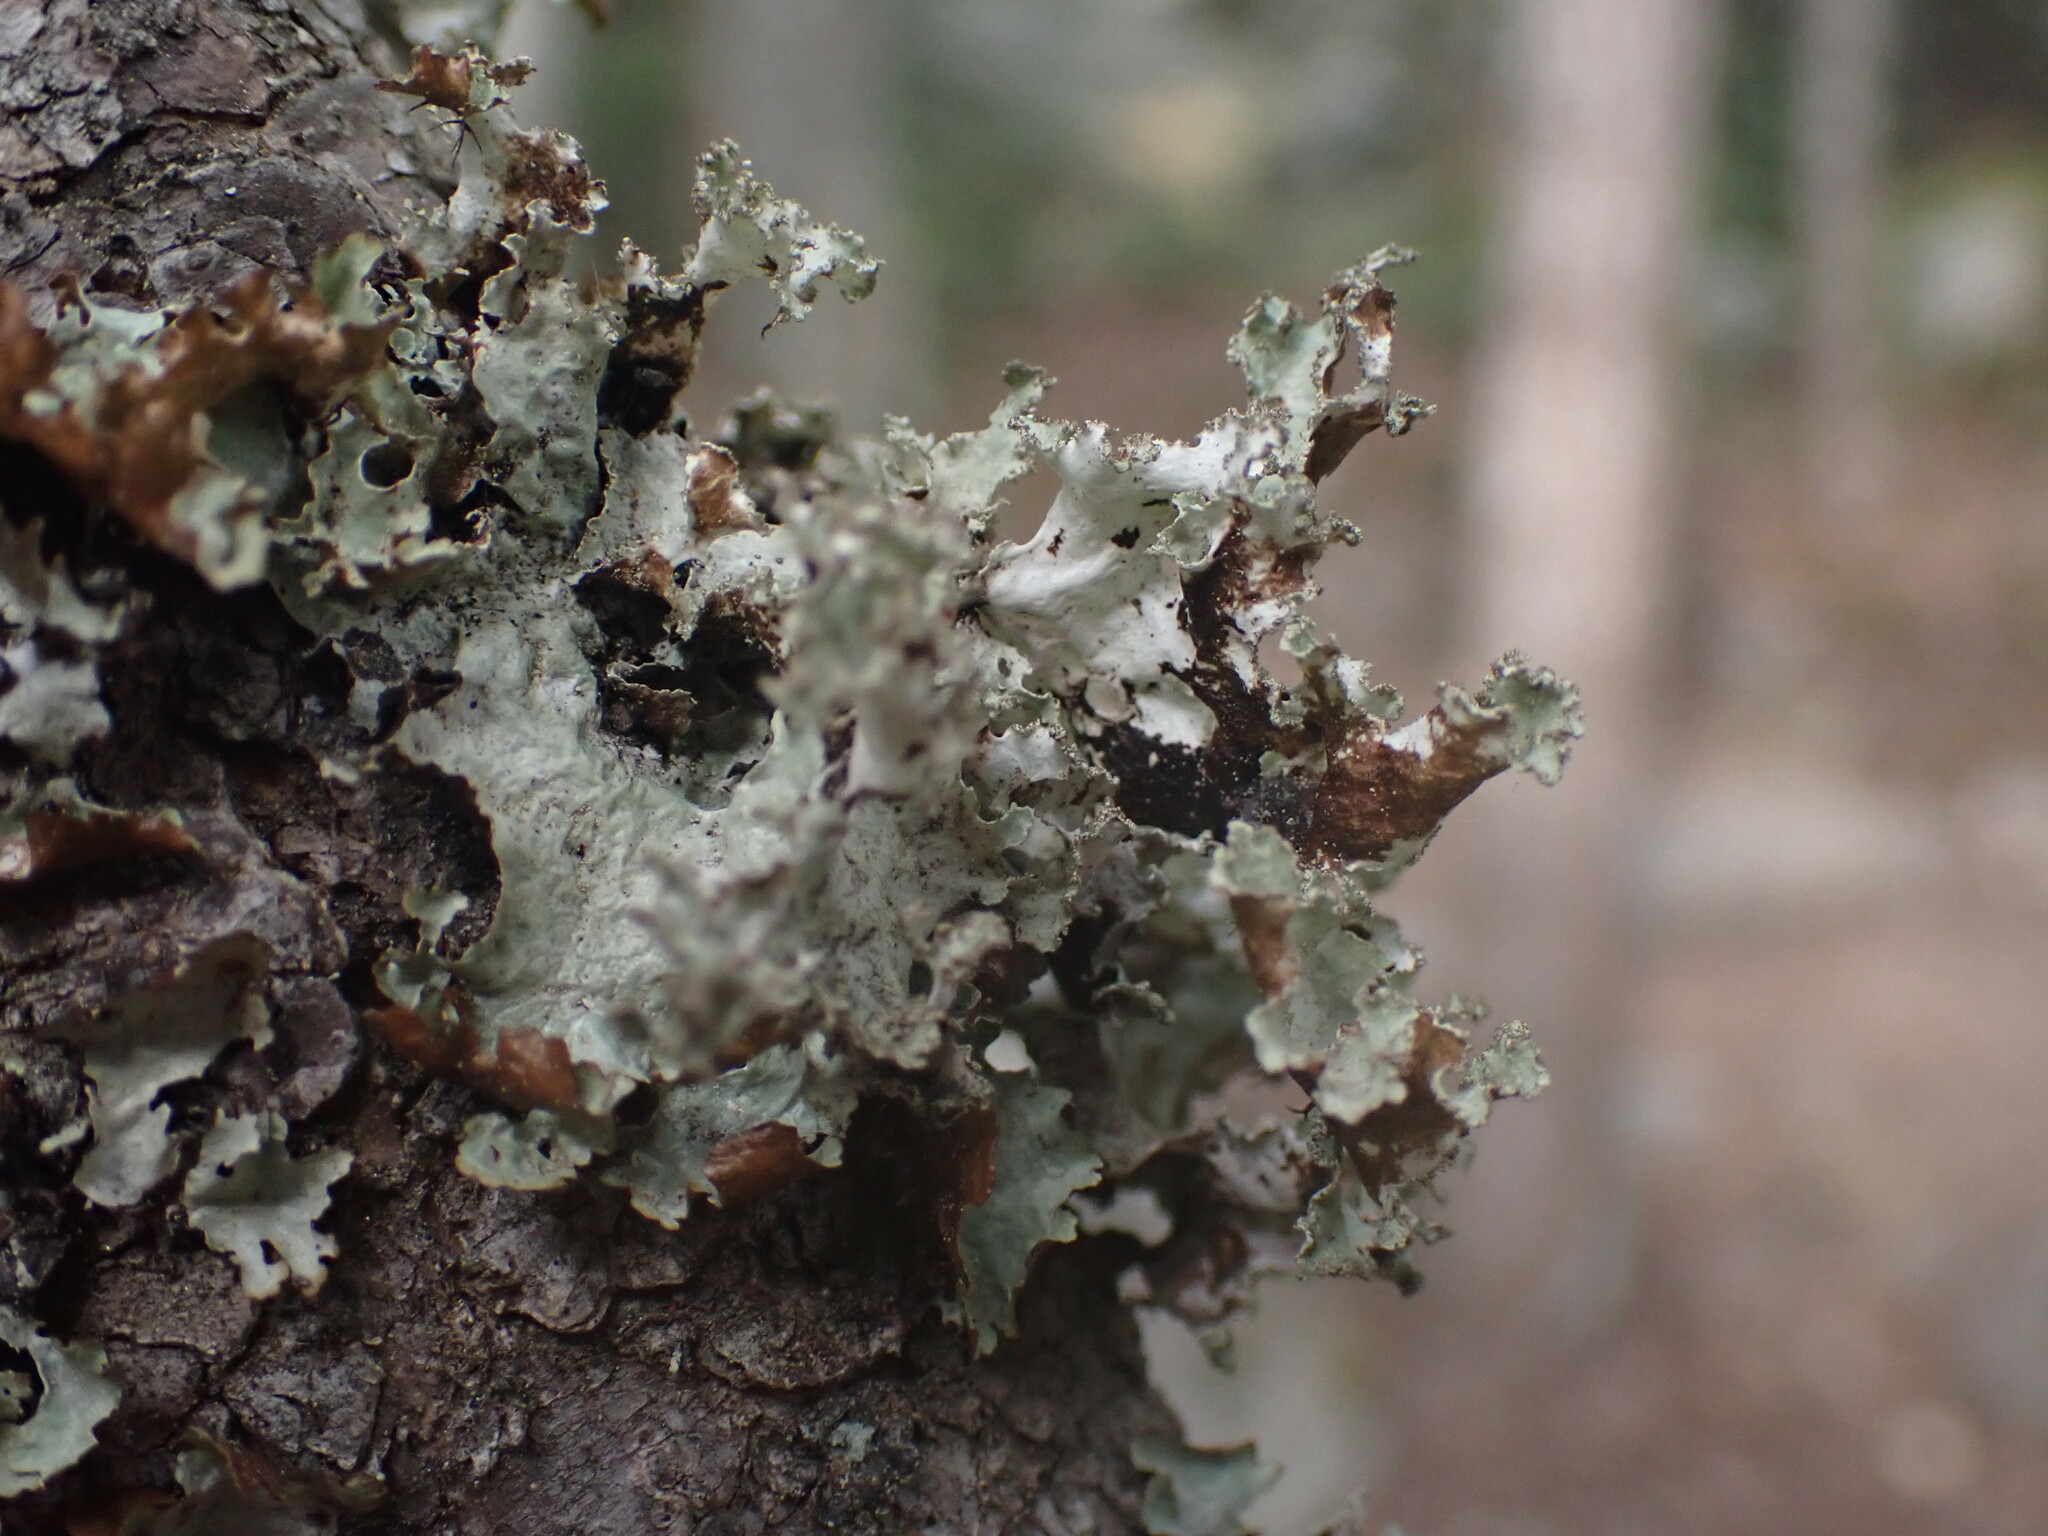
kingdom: Fungi
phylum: Ascomycota
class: Lecanoromycetes
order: Lecanorales
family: Parmeliaceae
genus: Platismatia
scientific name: Platismatia glauca
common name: Varied rag lichen
